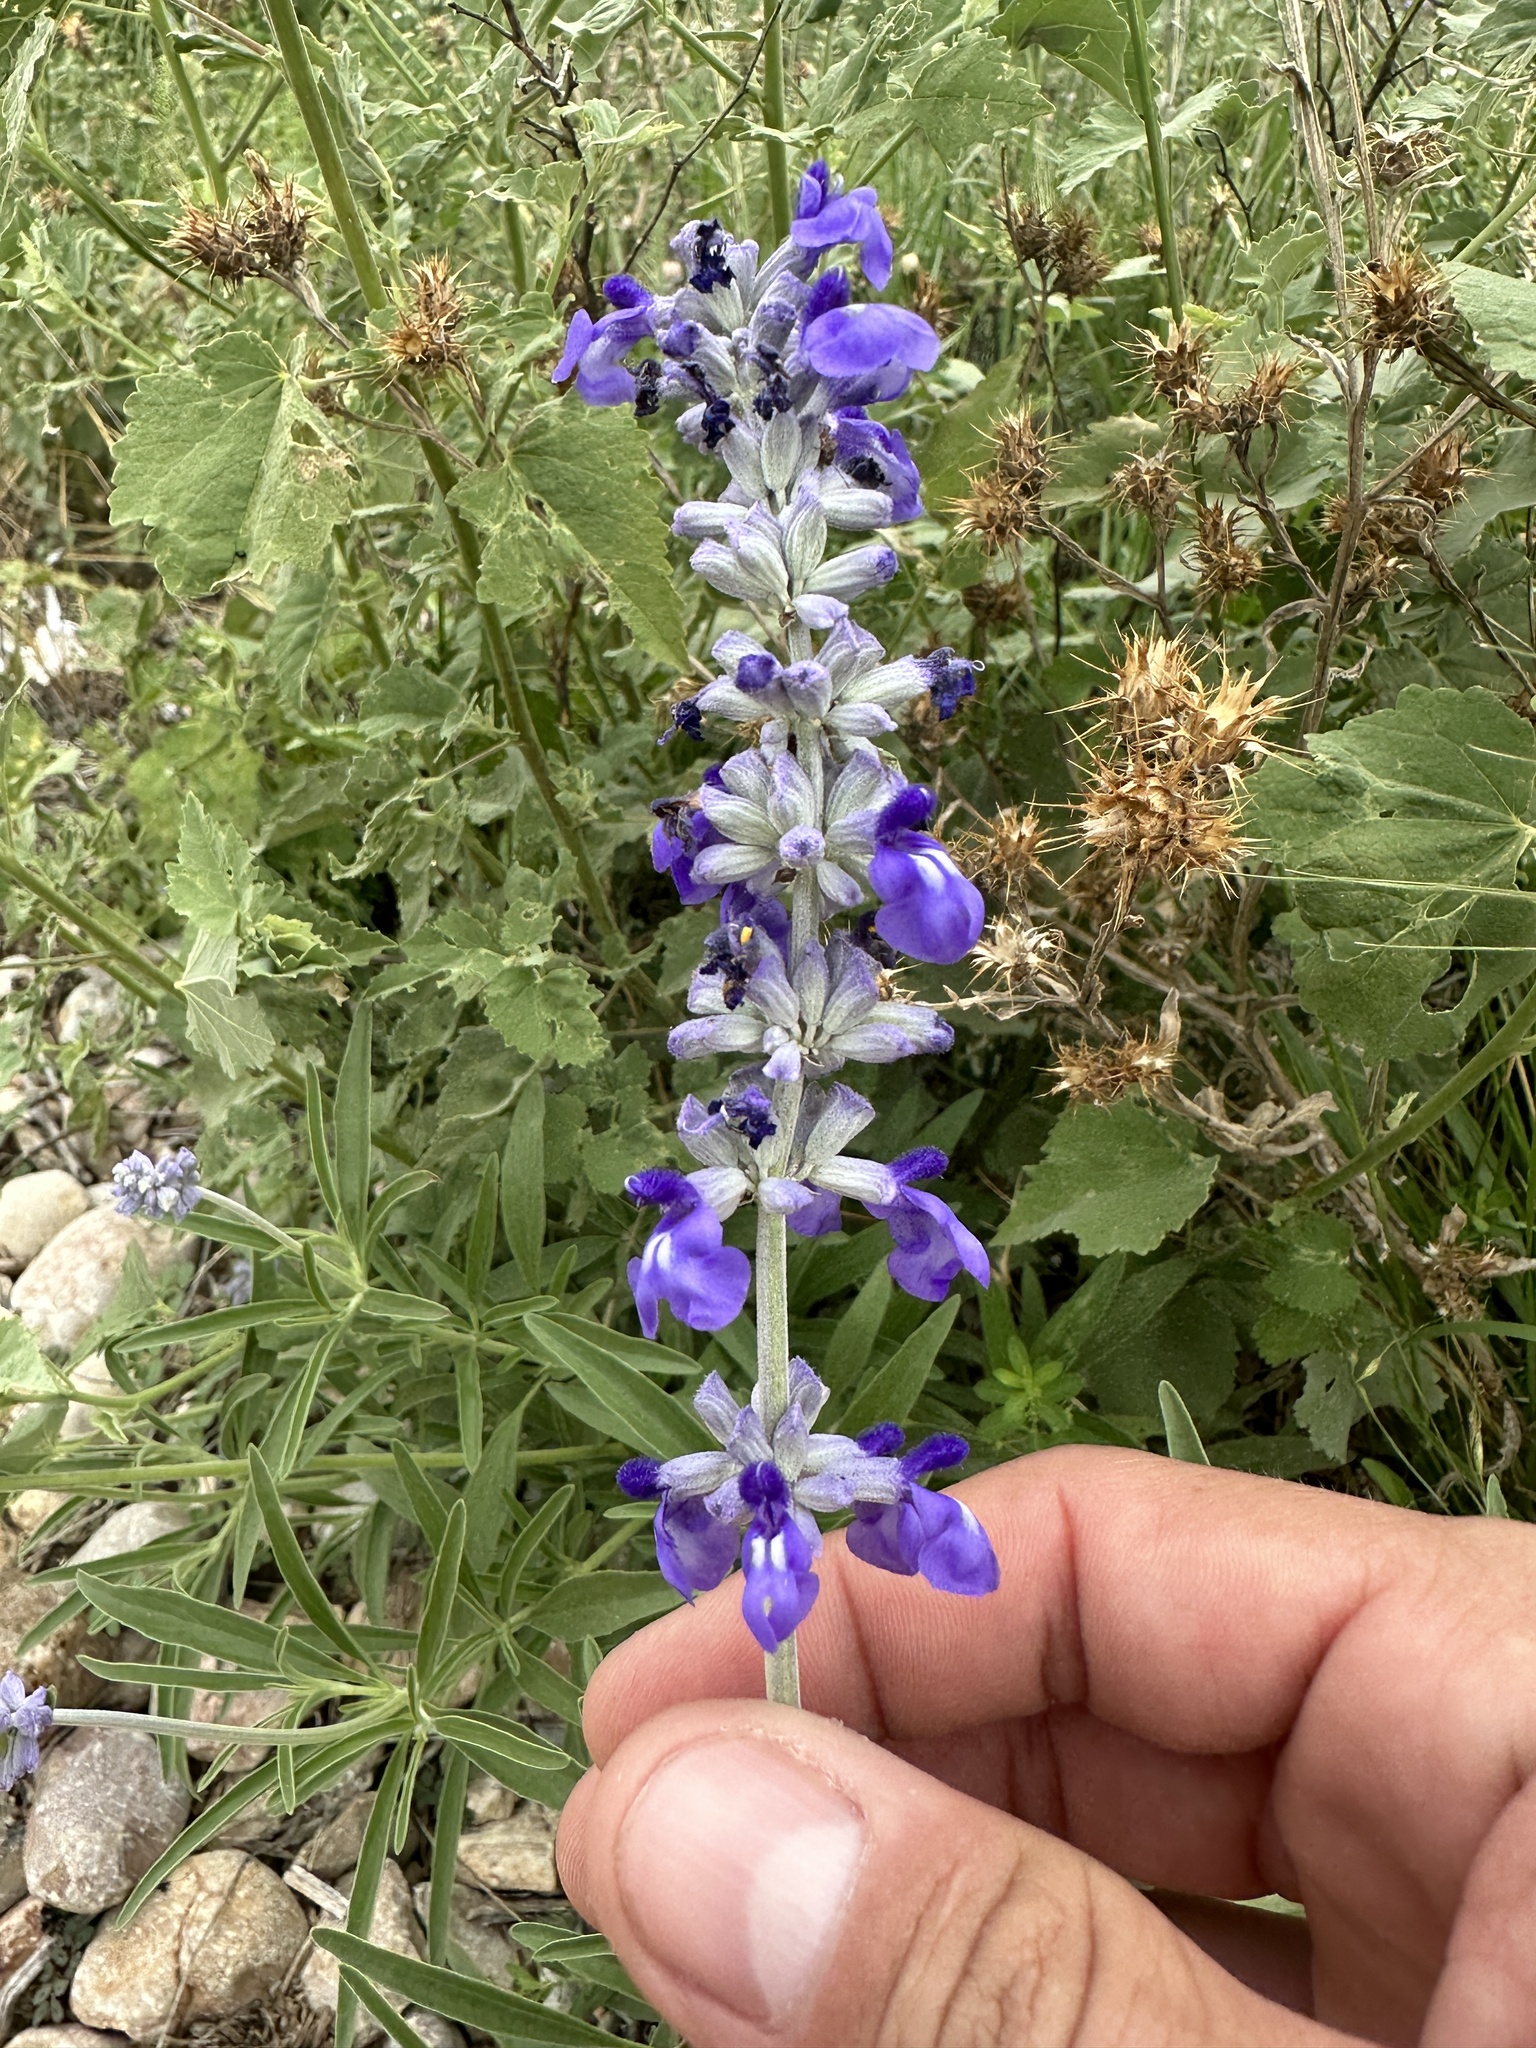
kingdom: Plantae
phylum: Tracheophyta
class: Magnoliopsida
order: Lamiales
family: Lamiaceae
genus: Salvia
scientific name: Salvia farinacea
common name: Mealy sage
